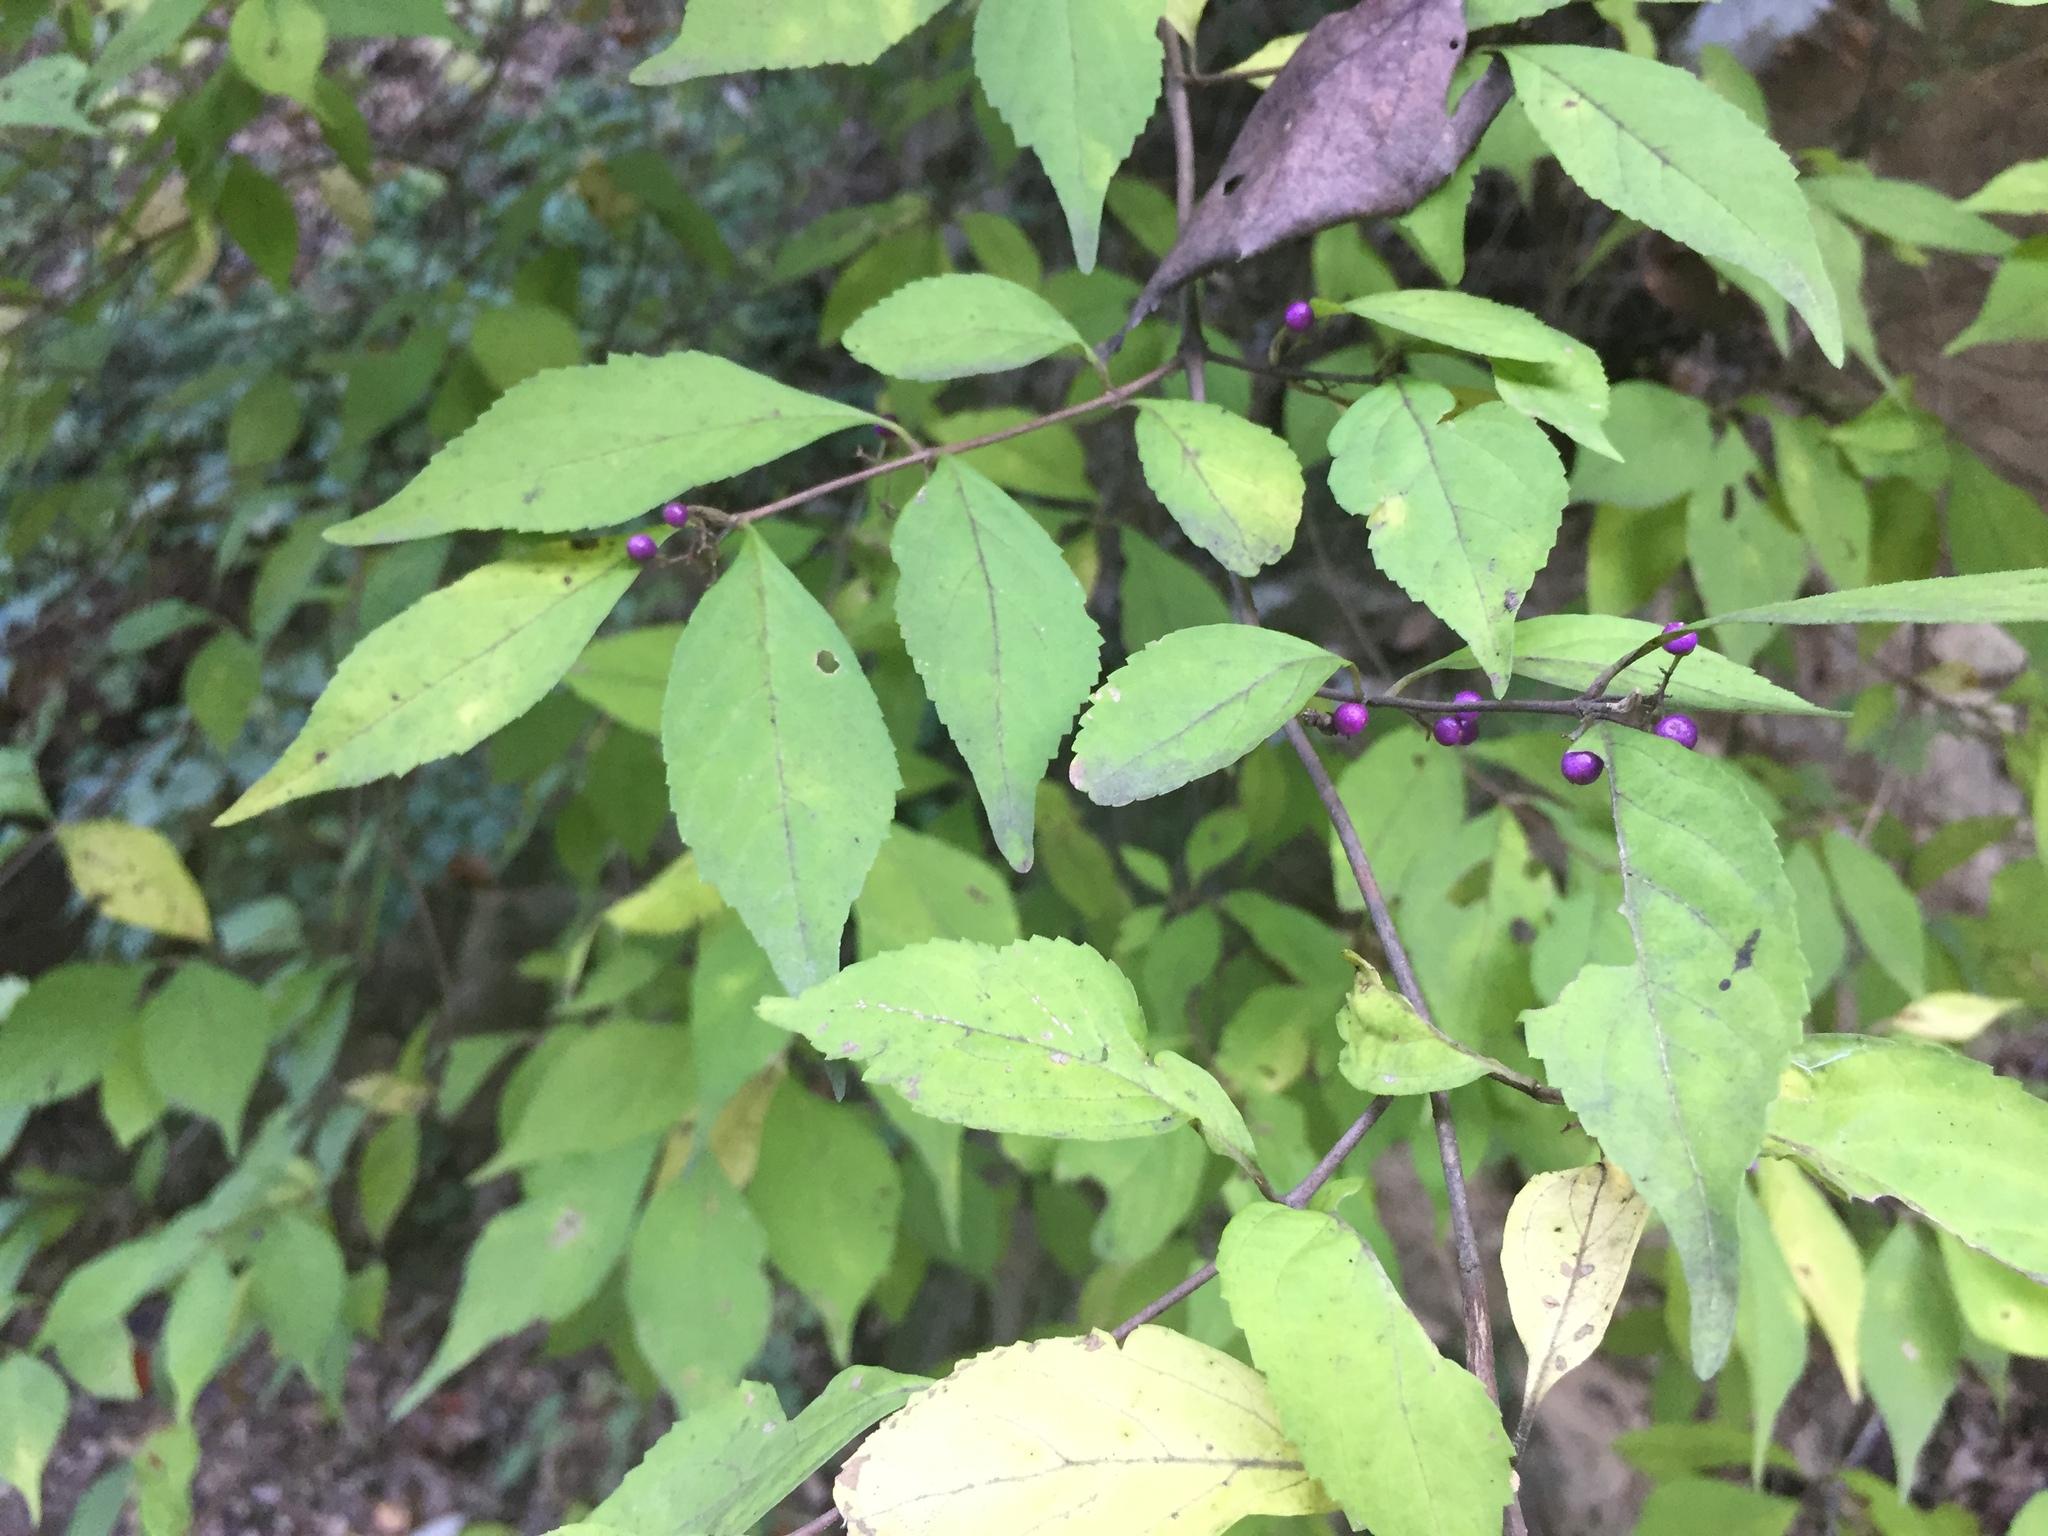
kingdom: Plantae
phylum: Tracheophyta
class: Magnoliopsida
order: Lamiales
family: Lamiaceae
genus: Callicarpa
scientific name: Callicarpa japonica
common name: Japanese beauty-berry
